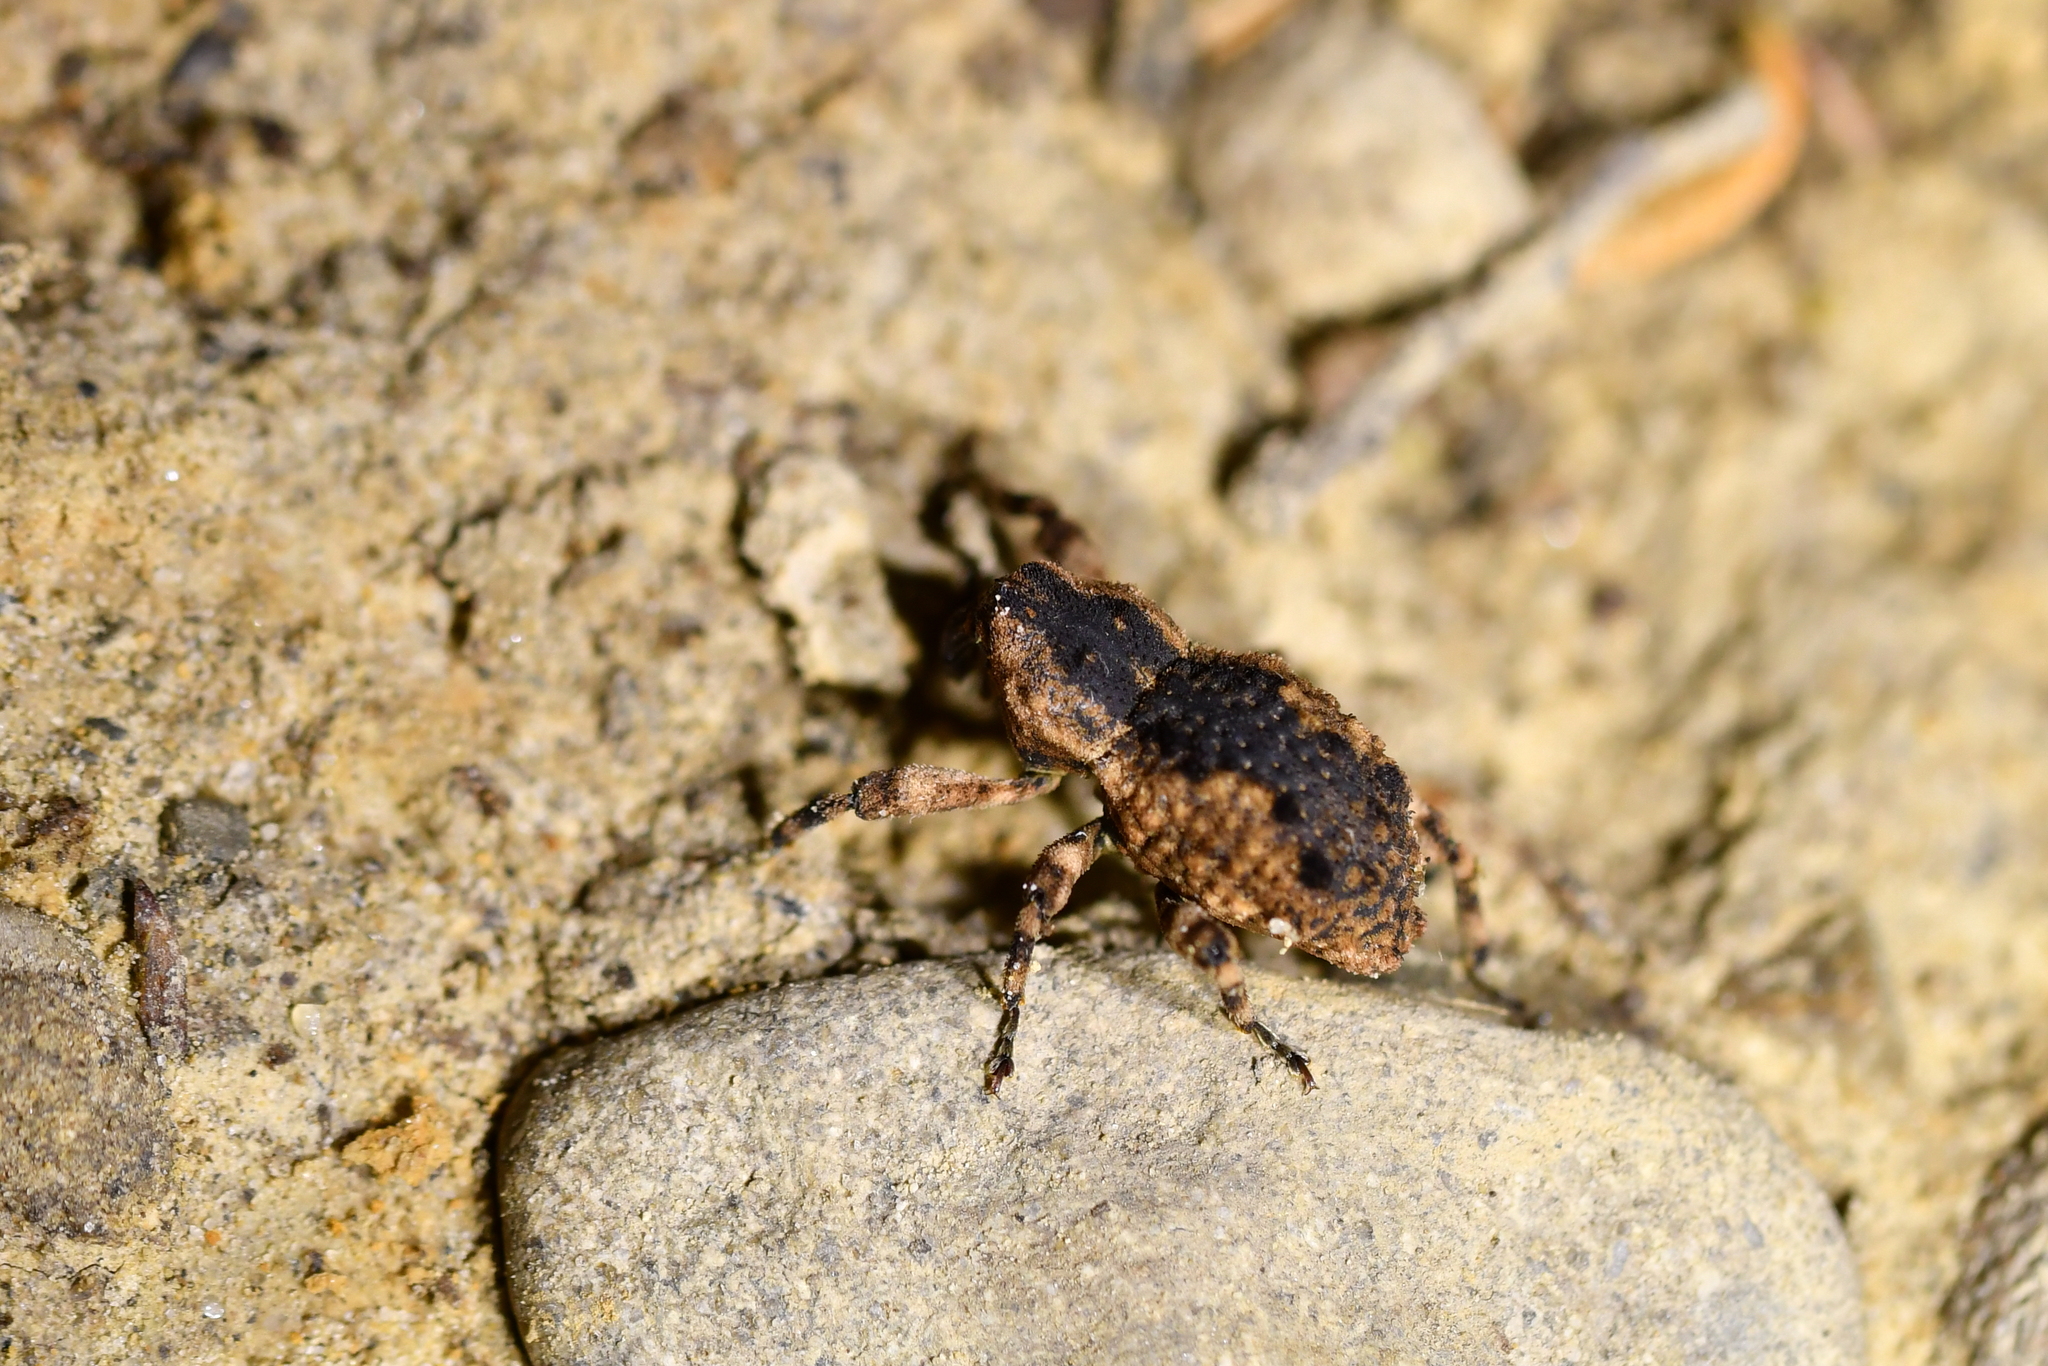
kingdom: Animalia
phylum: Arthropoda
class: Insecta
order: Coleoptera
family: Curculionidae
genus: Tychanopais
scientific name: Tychanopais fougeri
